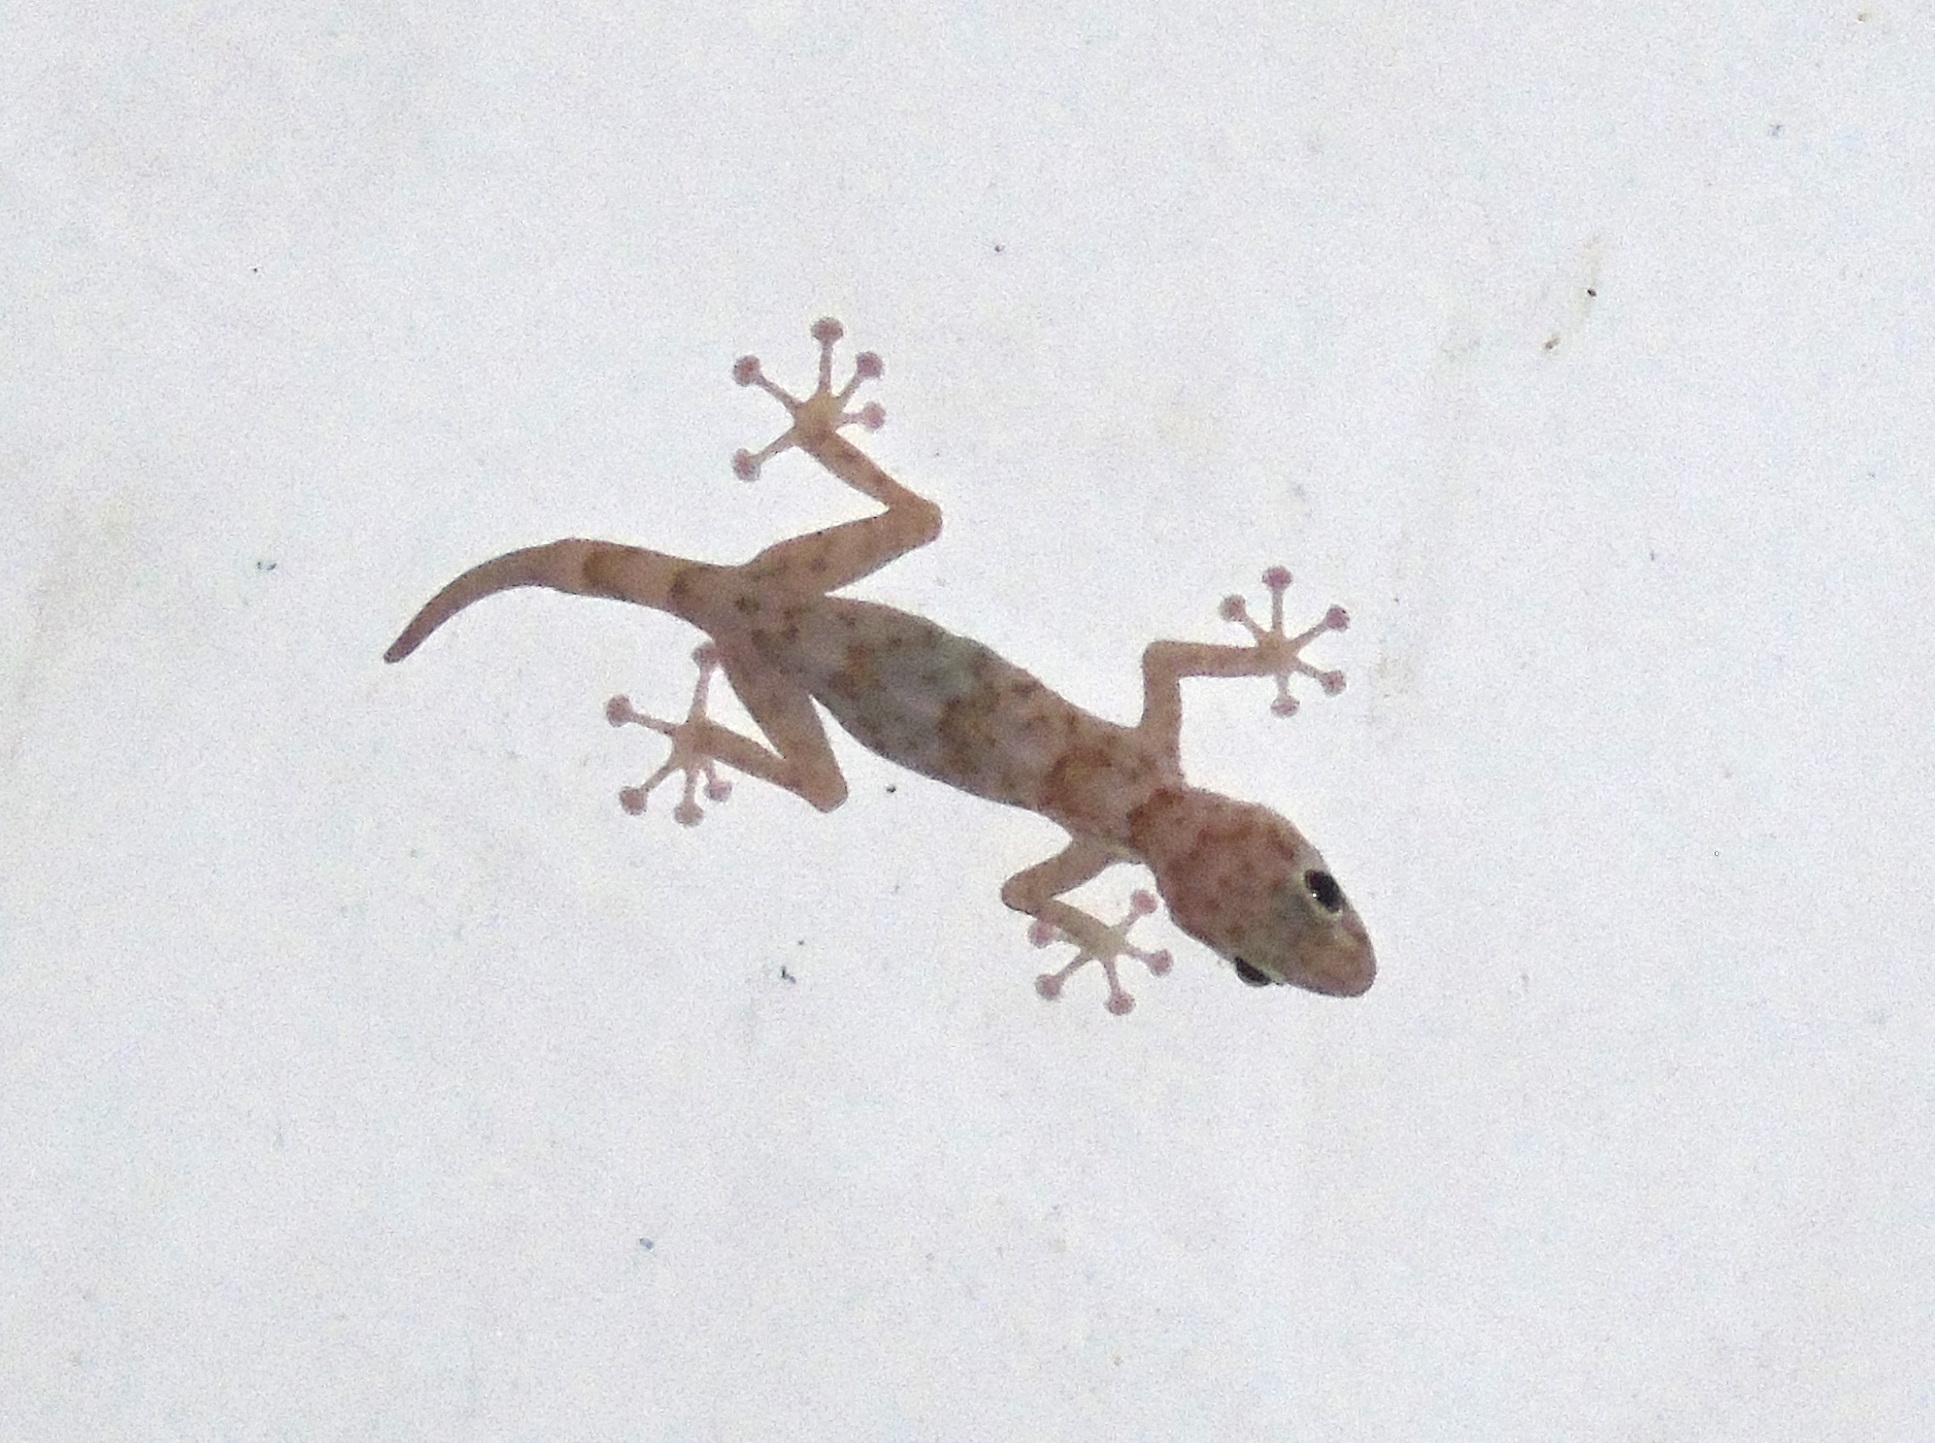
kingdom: Animalia
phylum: Chordata
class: Squamata
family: Phyllodactylidae
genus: Ptyodactylus
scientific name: Ptyodactylus hasselquistii
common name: Hasselquist’s fan-footed gecko
